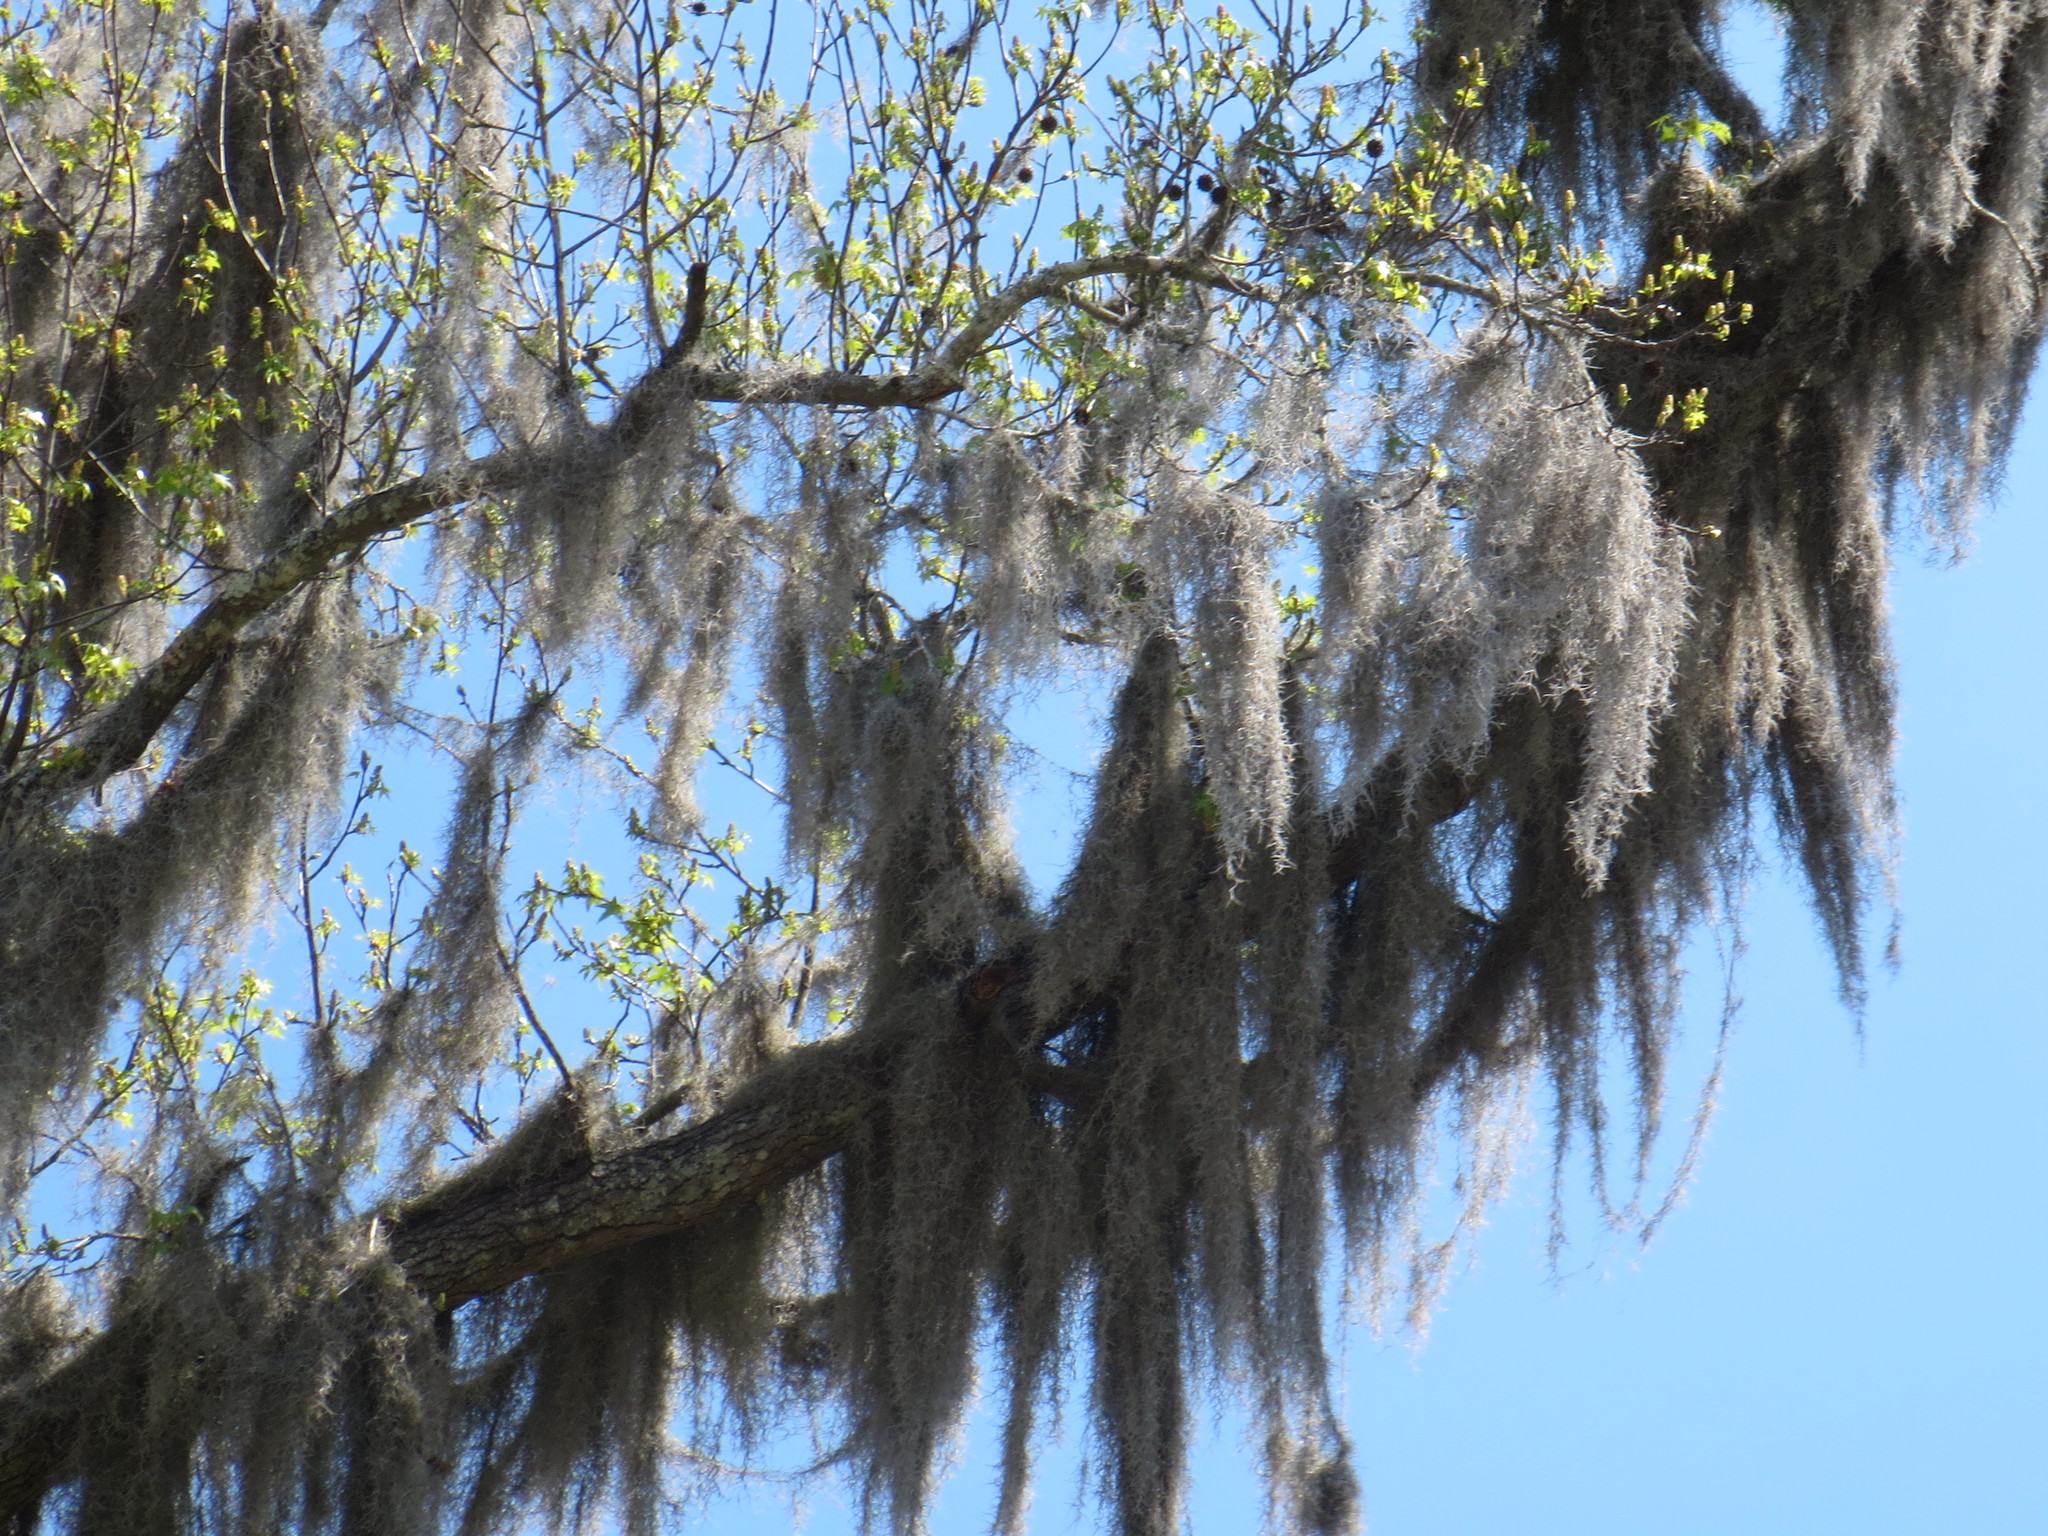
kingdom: Plantae
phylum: Tracheophyta
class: Liliopsida
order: Poales
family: Bromeliaceae
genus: Tillandsia
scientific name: Tillandsia usneoides
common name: Spanish moss
